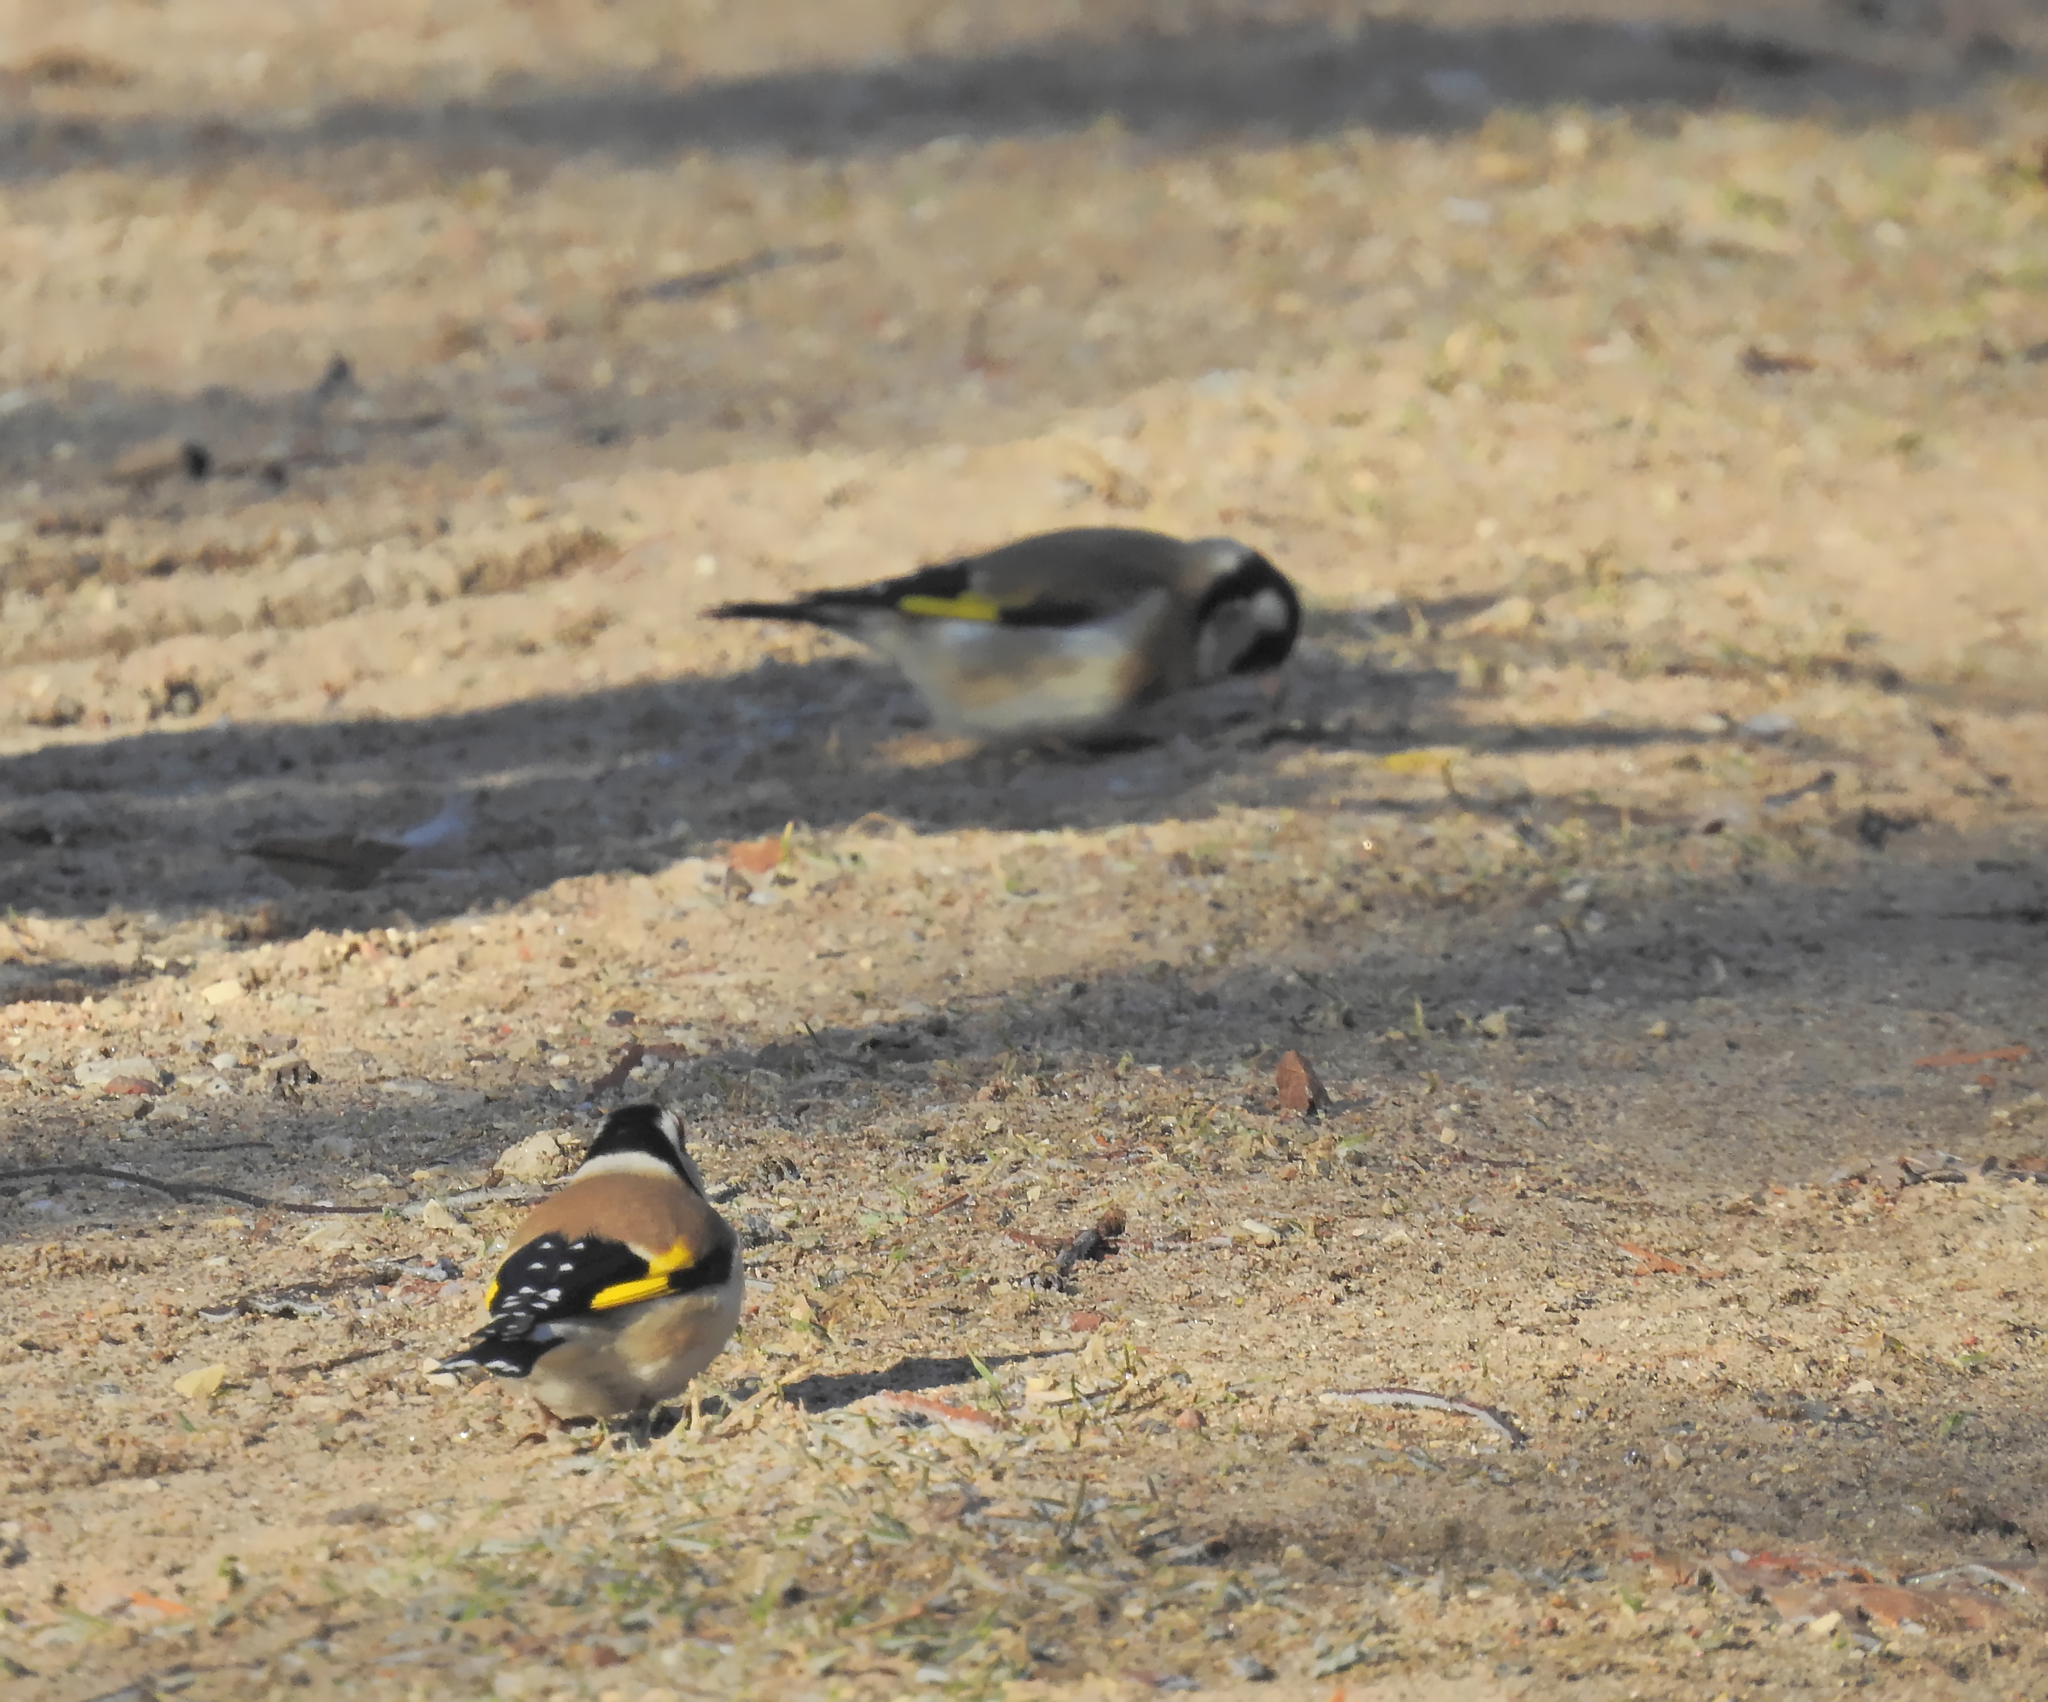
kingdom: Animalia
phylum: Chordata
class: Aves
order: Passeriformes
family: Fringillidae
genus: Carduelis
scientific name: Carduelis carduelis
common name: European goldfinch
